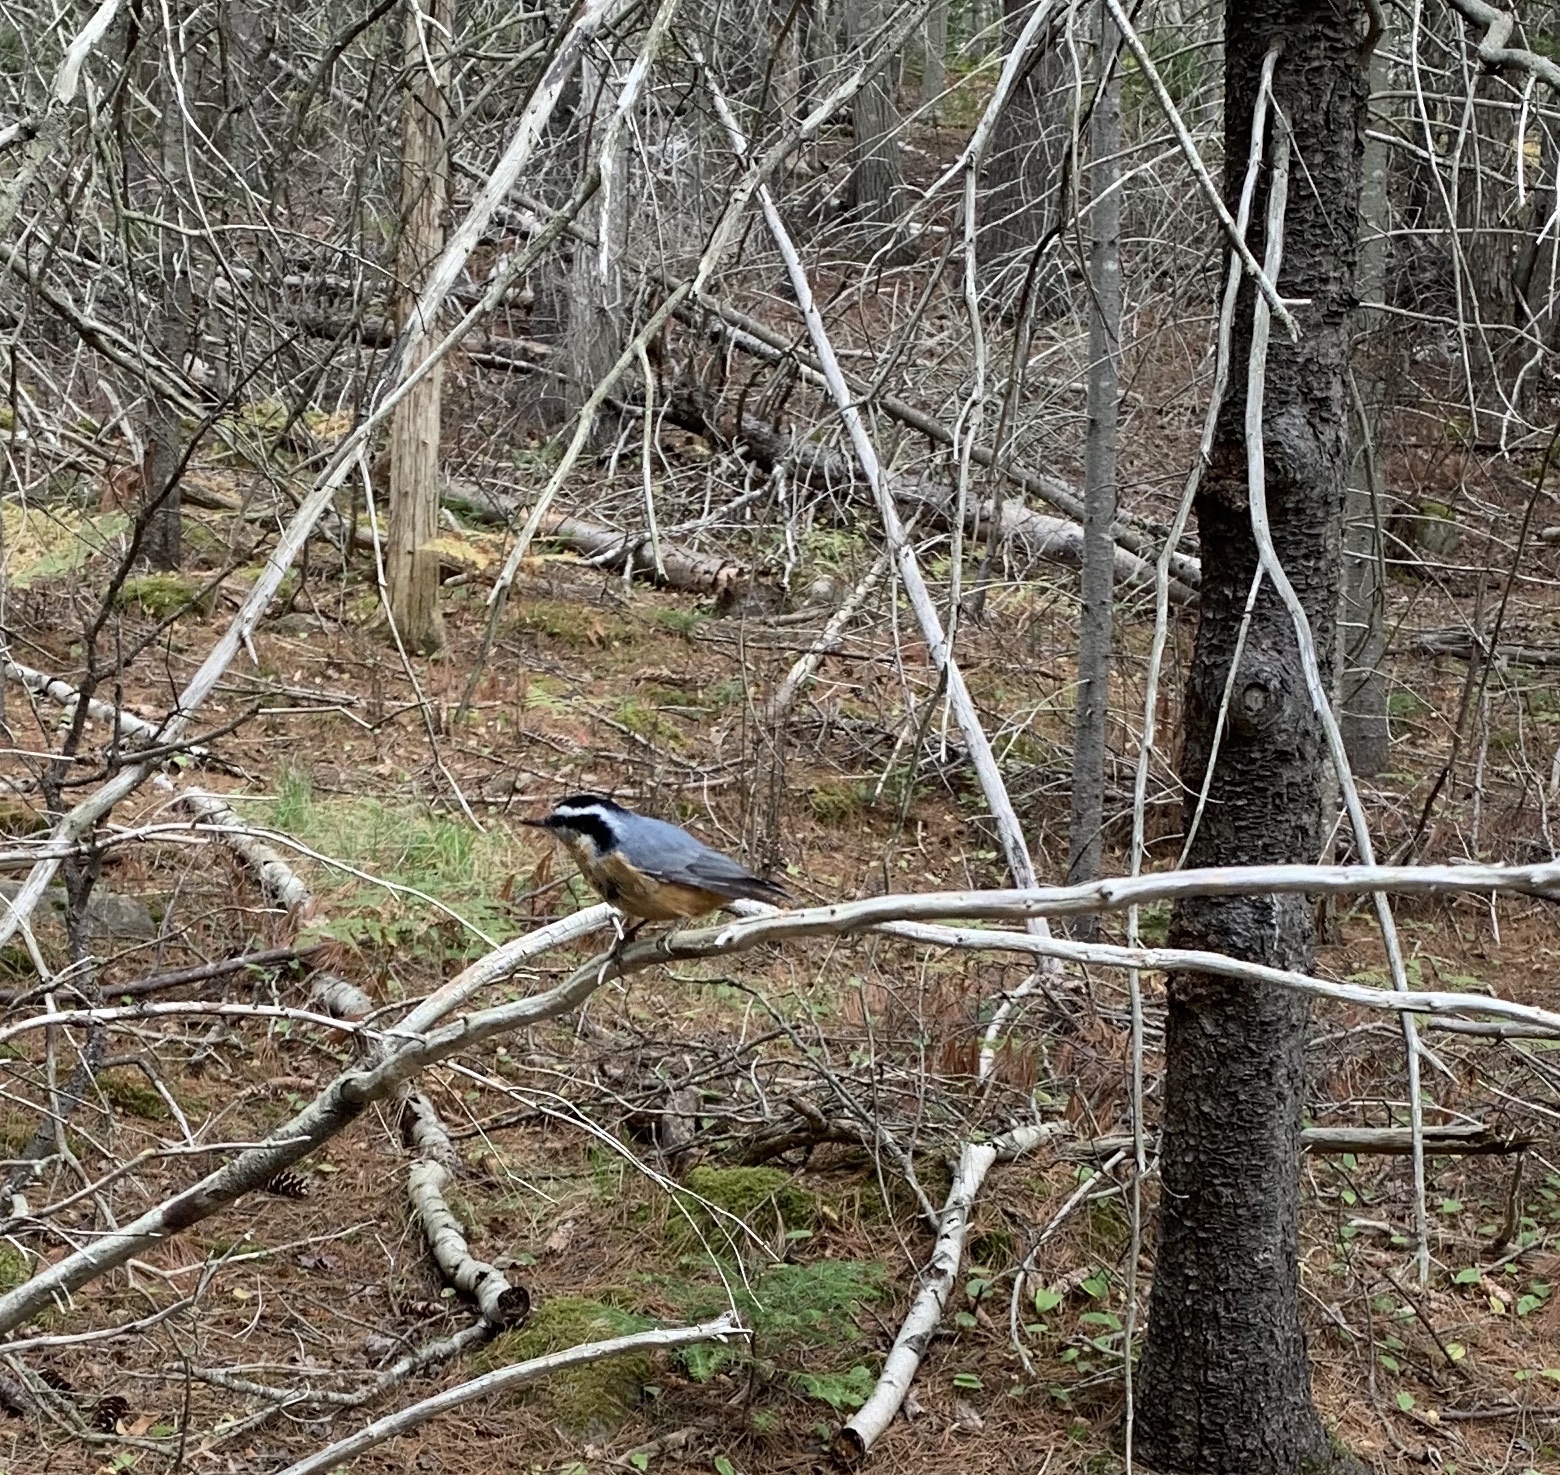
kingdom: Animalia
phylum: Chordata
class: Aves
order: Passeriformes
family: Sittidae
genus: Sitta
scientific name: Sitta canadensis
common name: Red-breasted nuthatch
